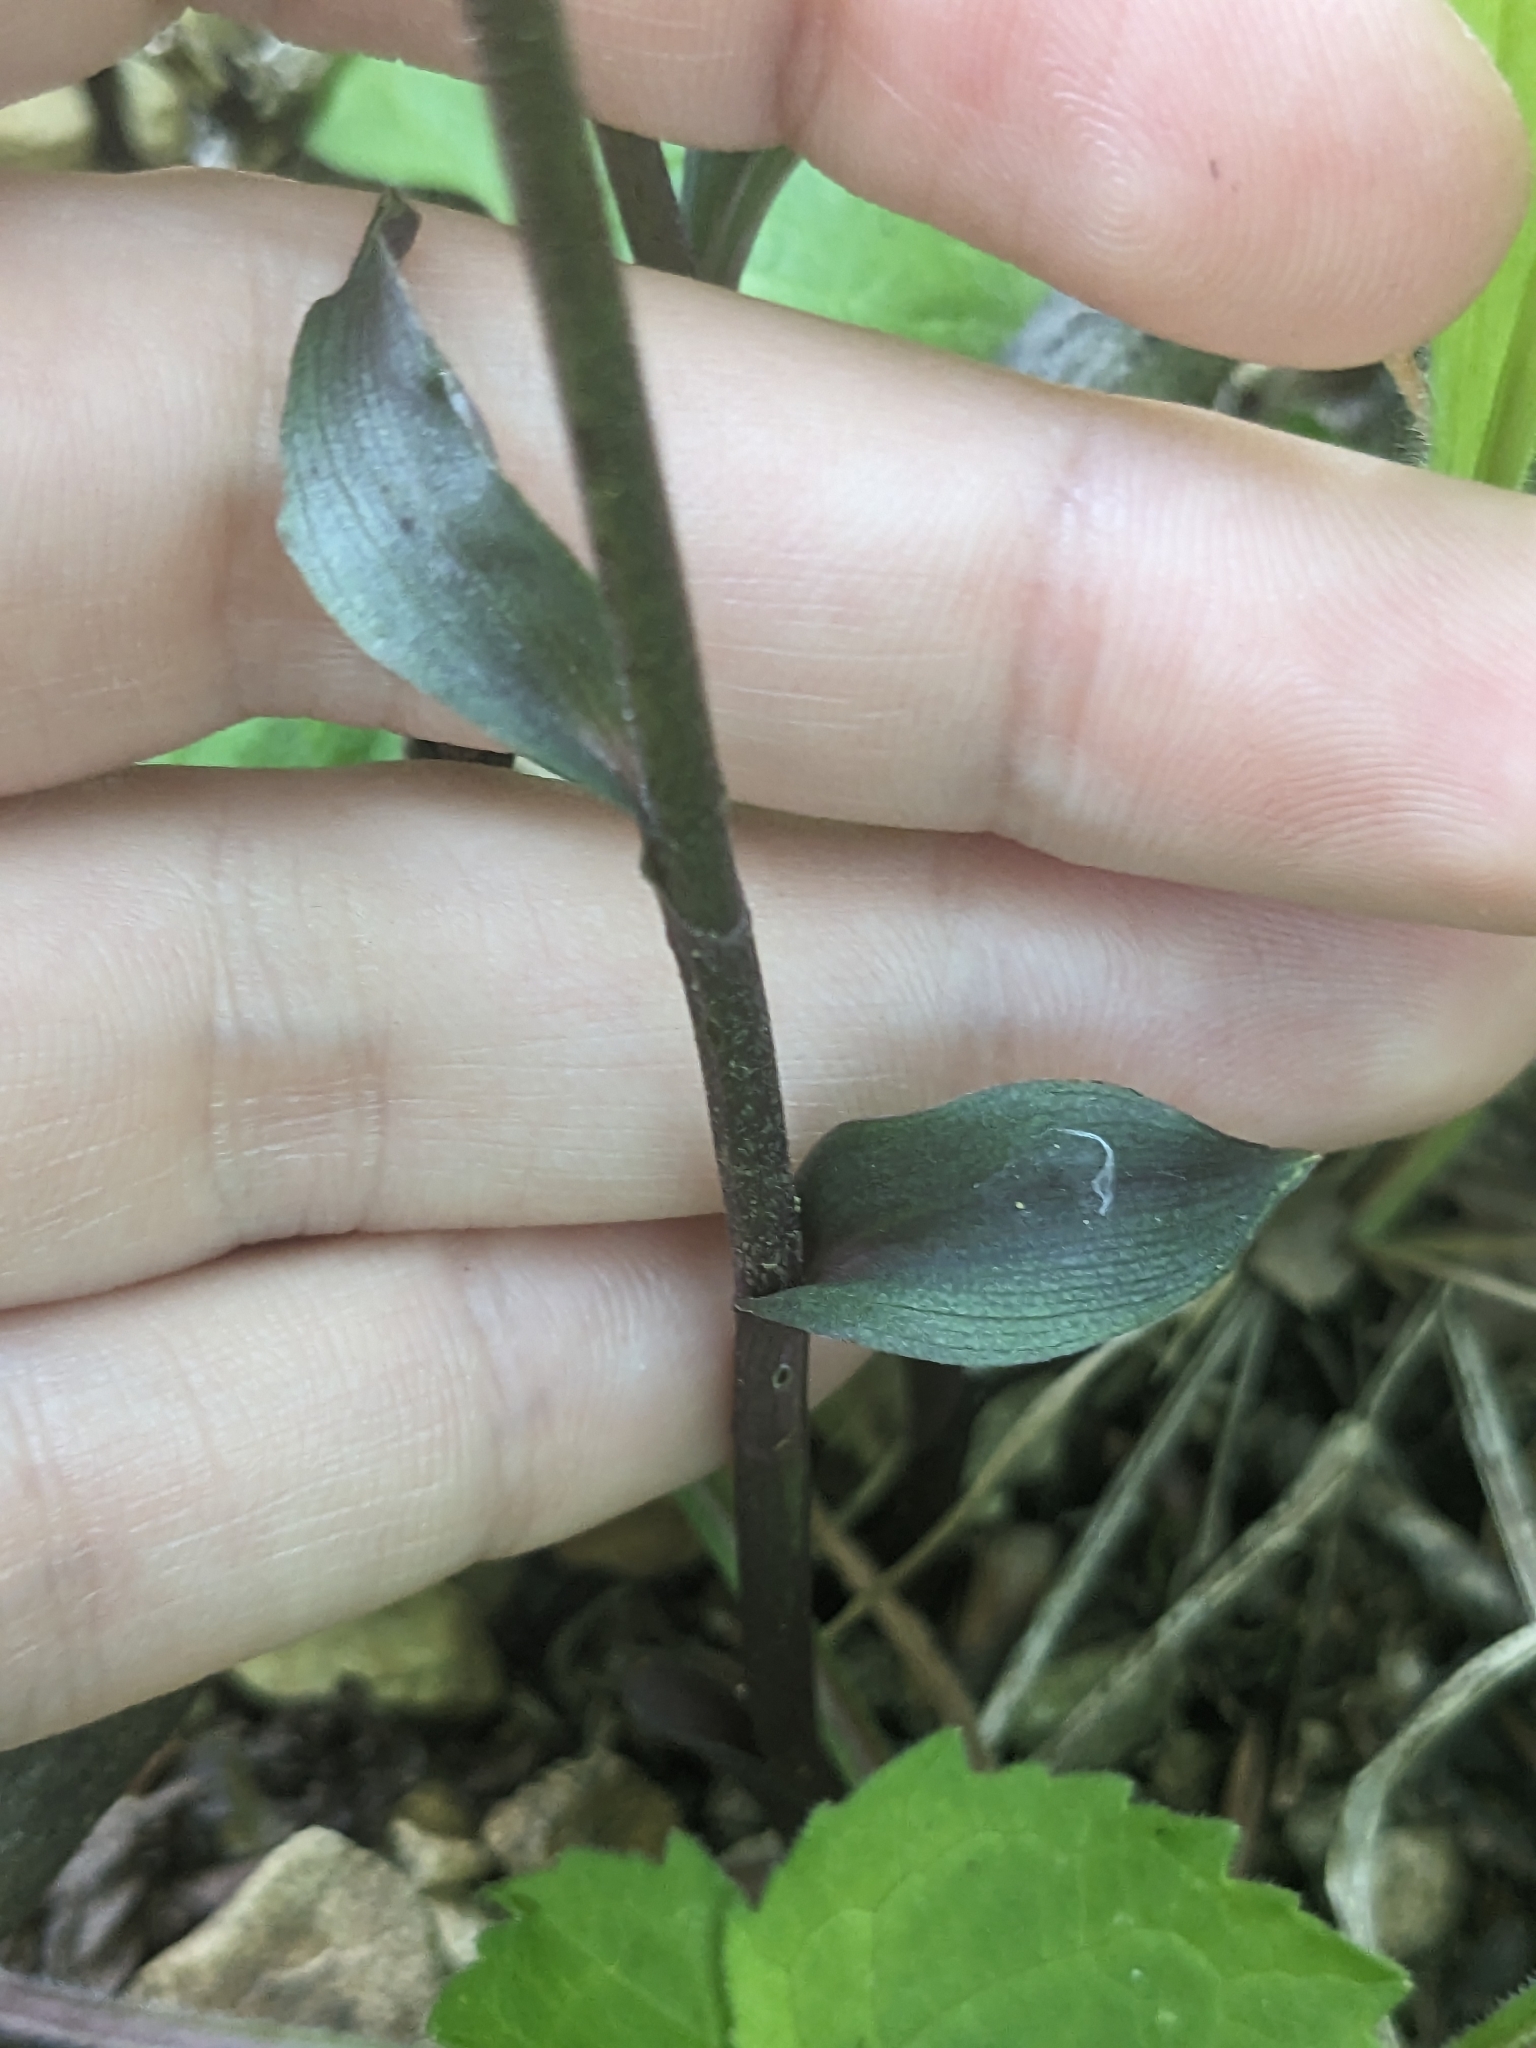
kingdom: Plantae
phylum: Tracheophyta
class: Liliopsida
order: Asparagales
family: Orchidaceae
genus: Epipactis
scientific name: Epipactis microphylla
